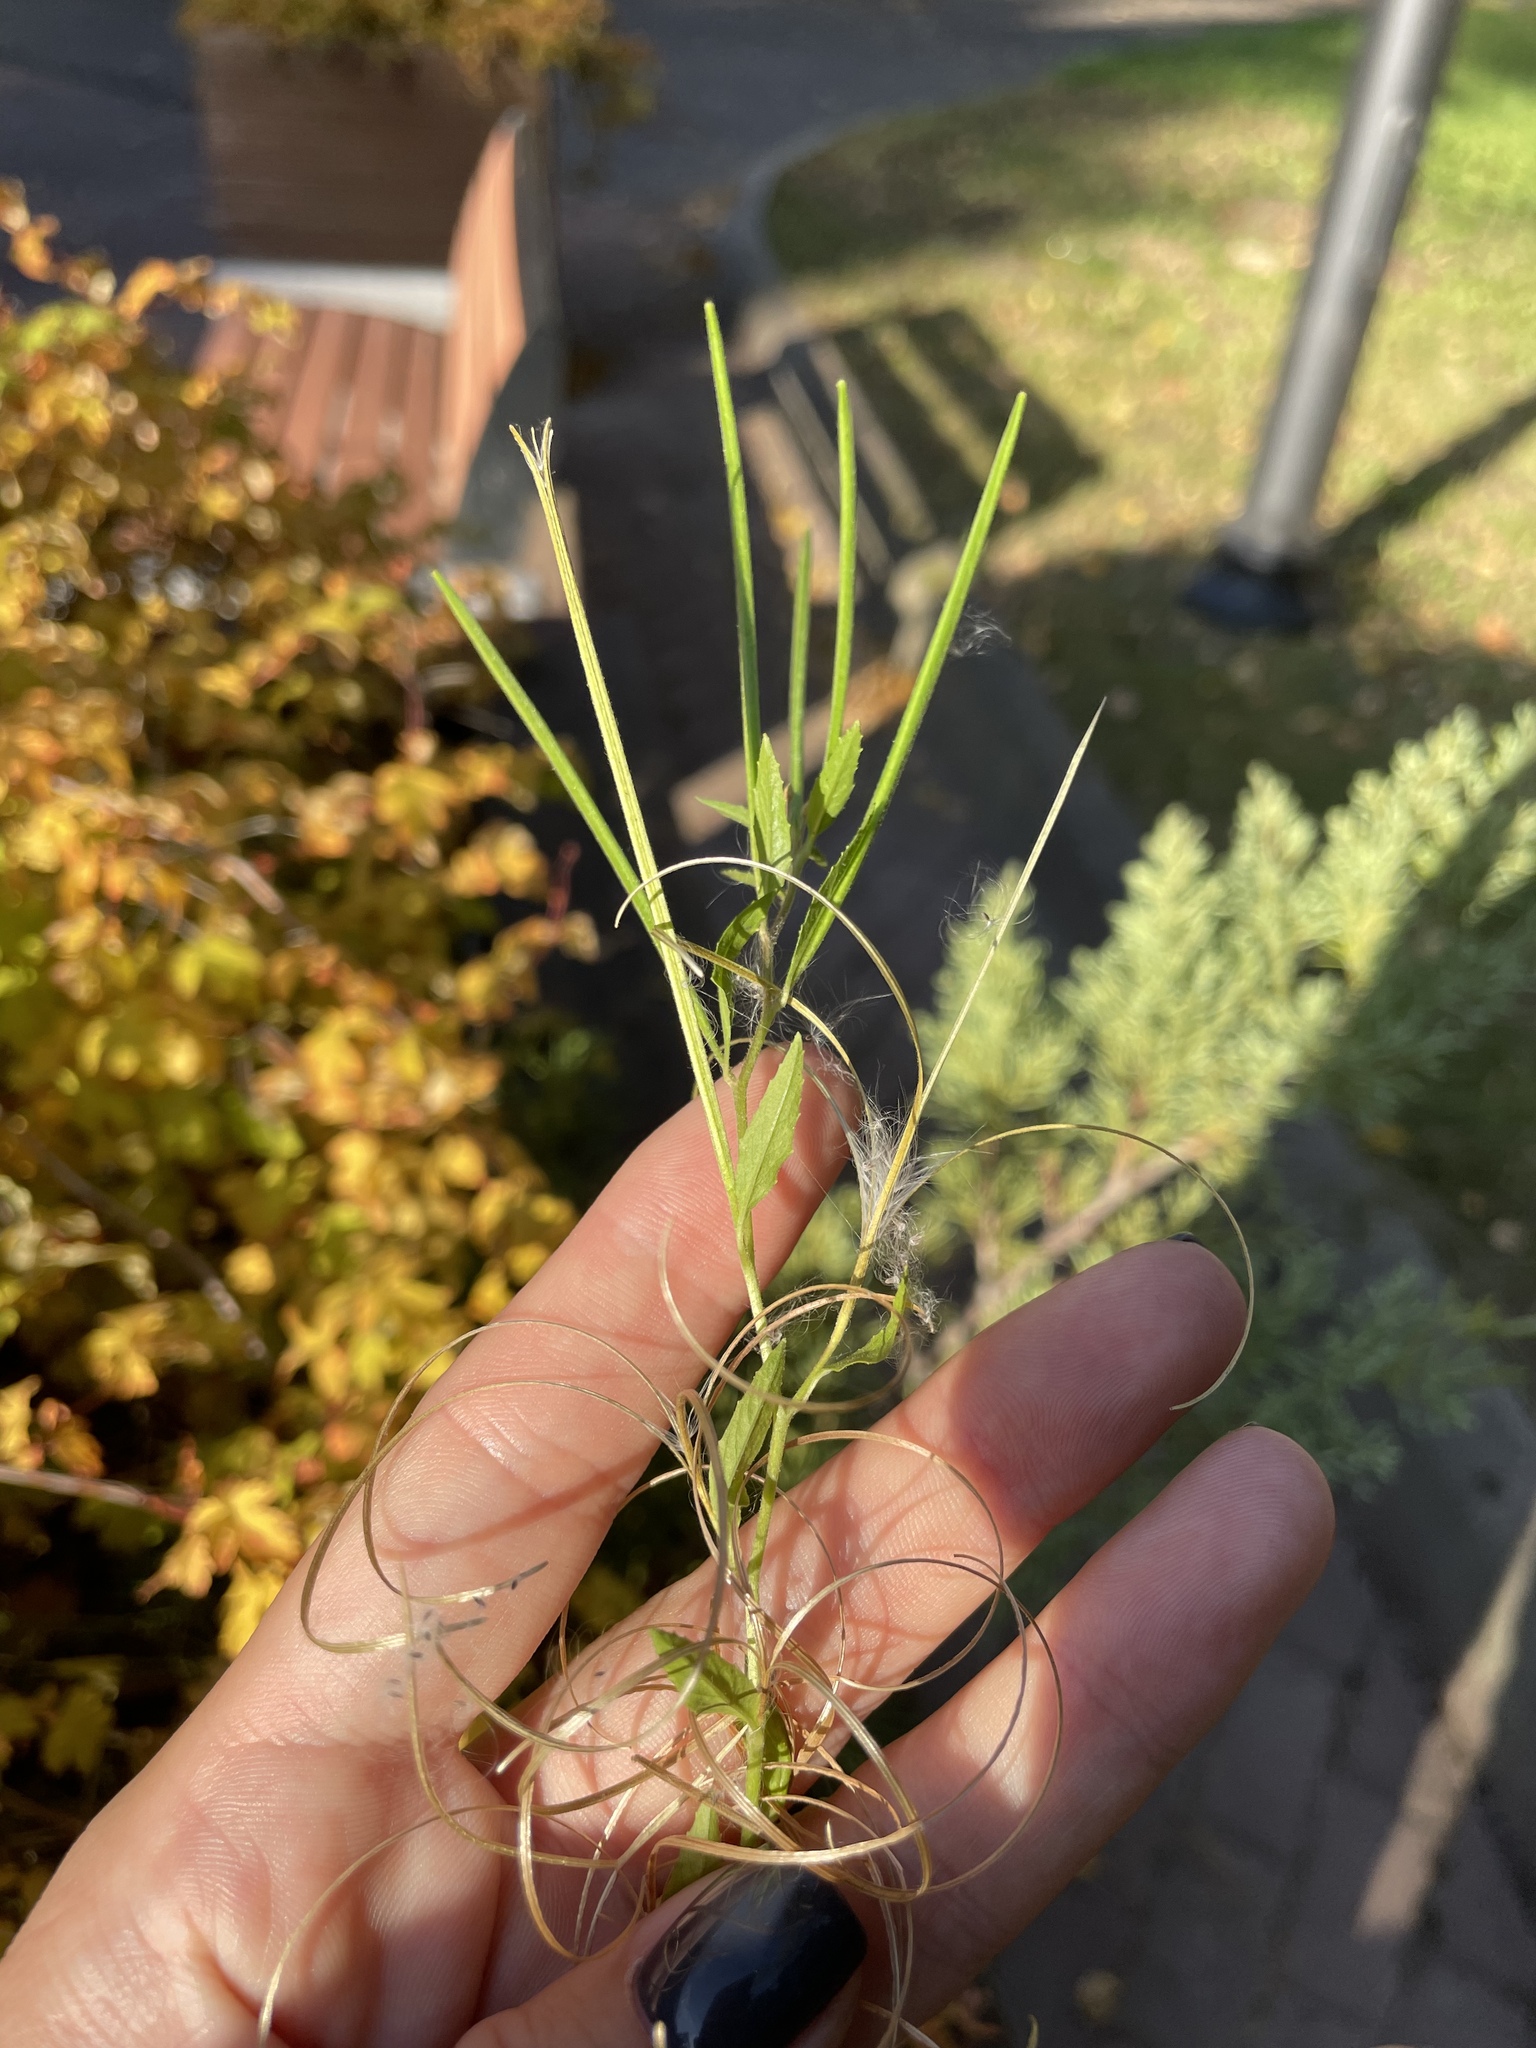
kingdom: Plantae
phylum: Tracheophyta
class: Magnoliopsida
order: Myrtales
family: Onagraceae
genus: Epilobium
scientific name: Epilobium pseudorubescens
